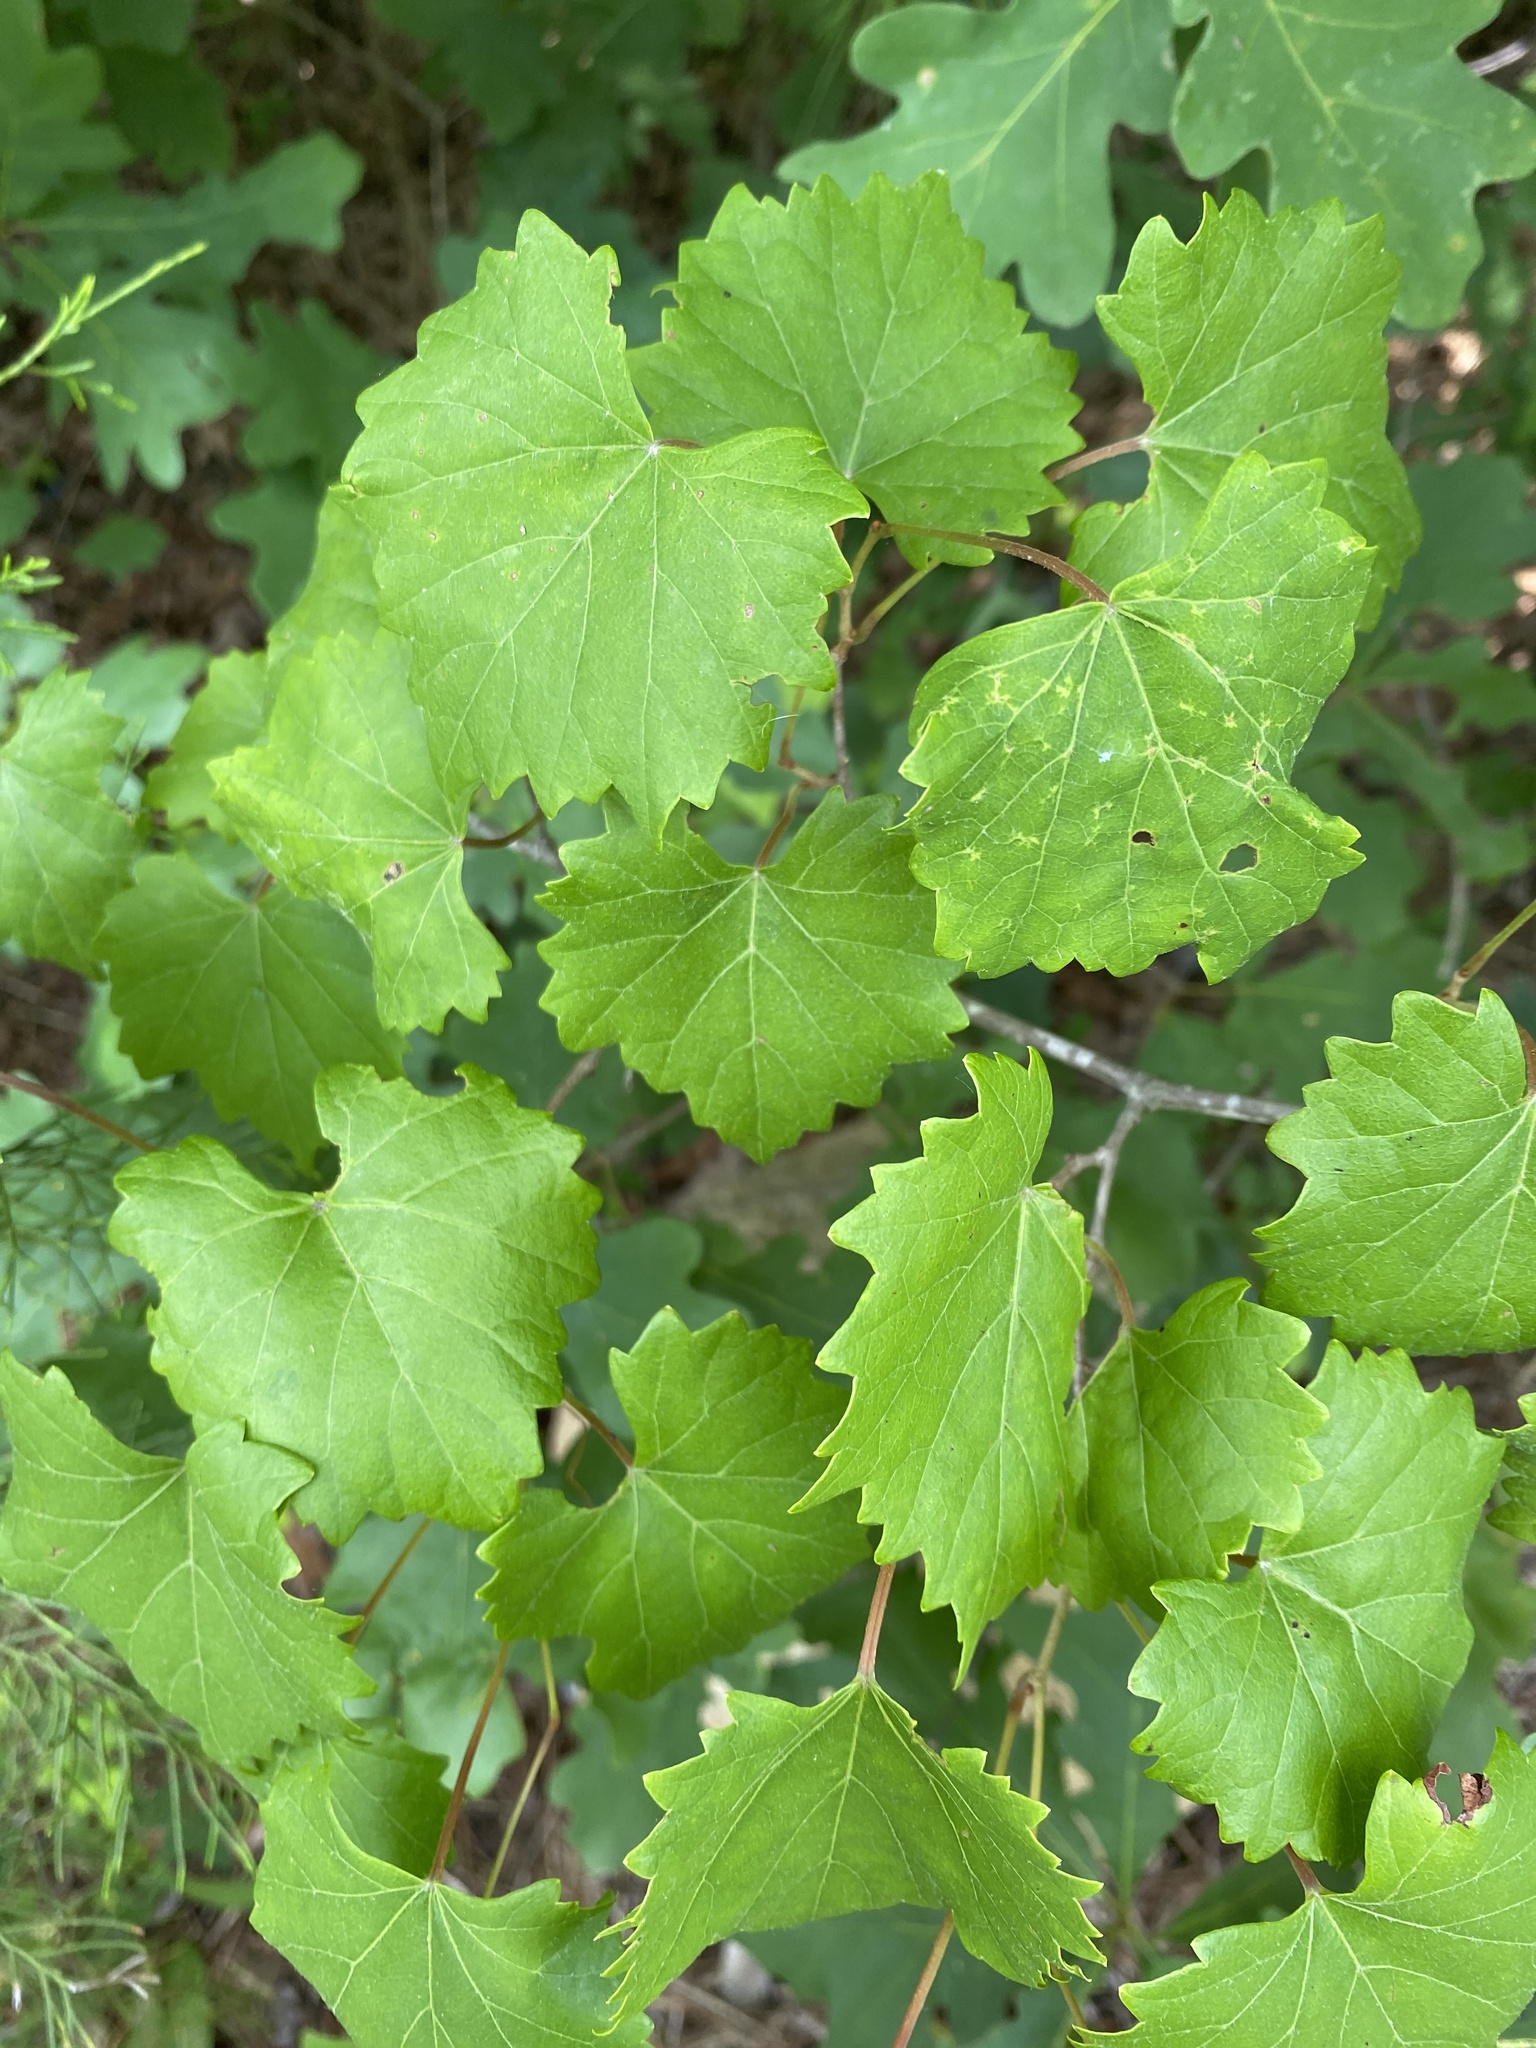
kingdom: Plantae
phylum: Tracheophyta
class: Magnoliopsida
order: Vitales
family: Vitaceae
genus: Vitis
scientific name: Vitis rotundifolia
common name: Muscadine grape
